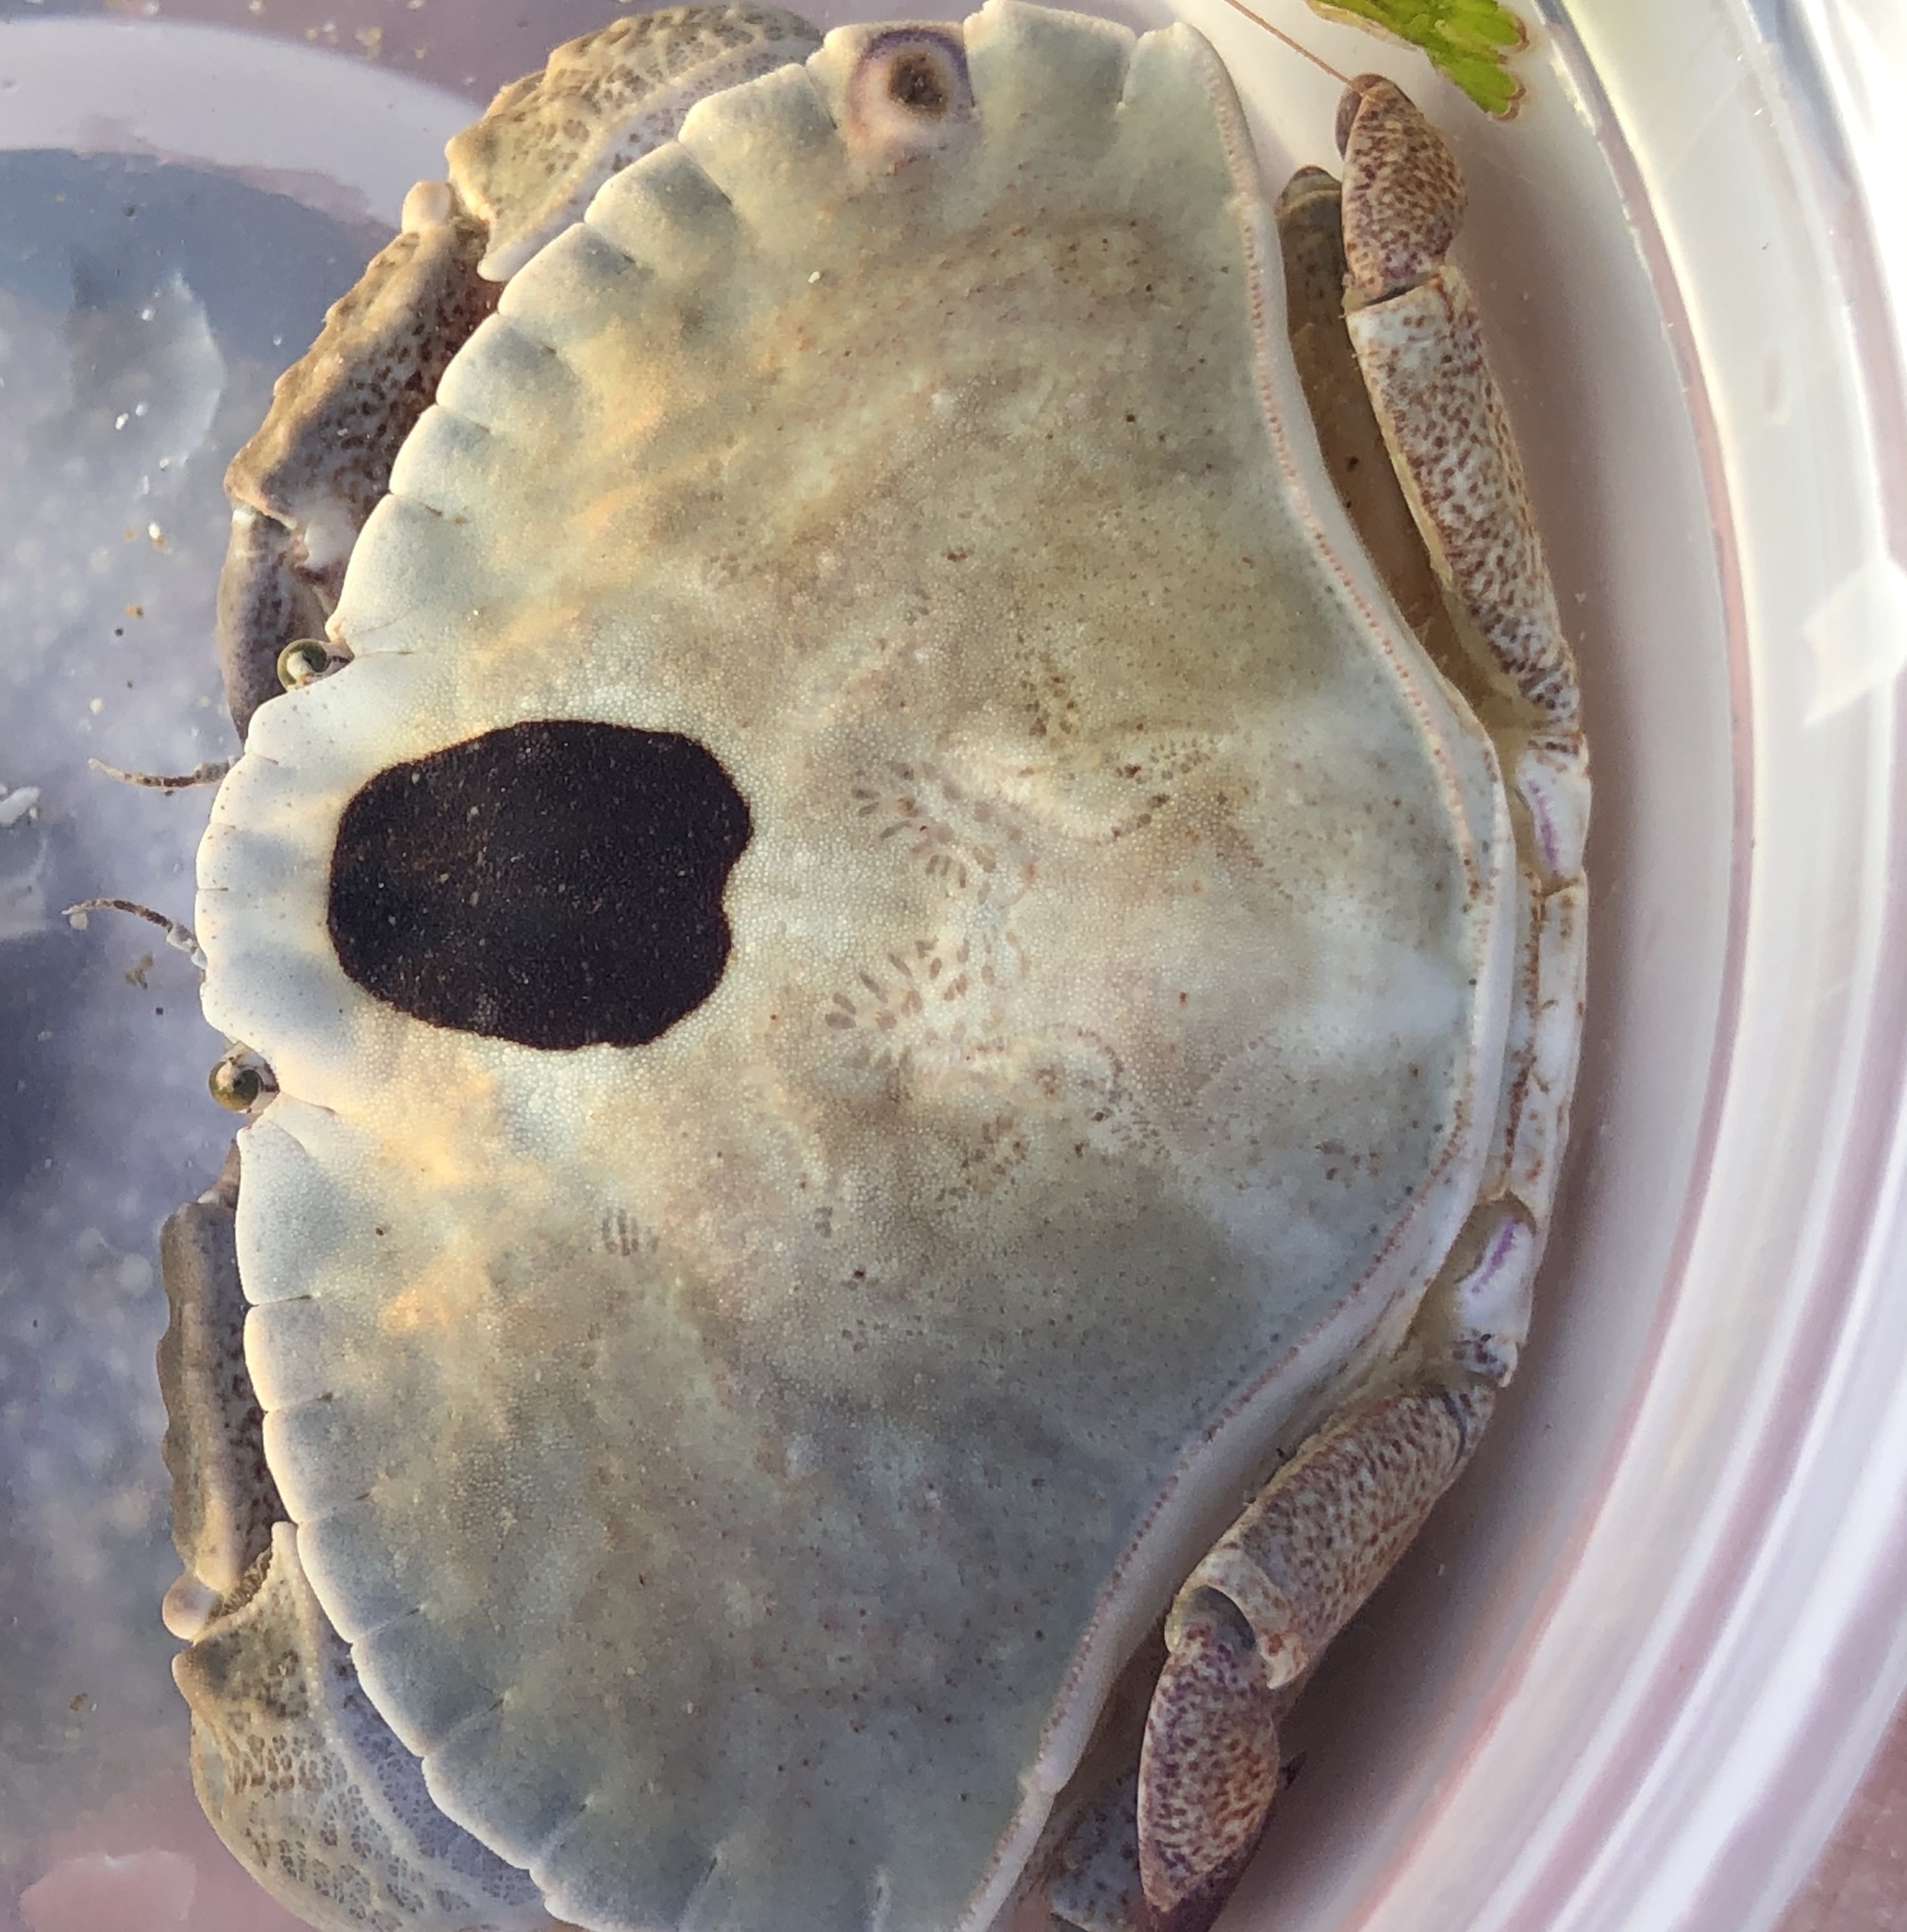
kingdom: Animalia
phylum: Arthropoda
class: Malacostraca
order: Decapoda
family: Cancridae
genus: Cancer
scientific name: Cancer productus
